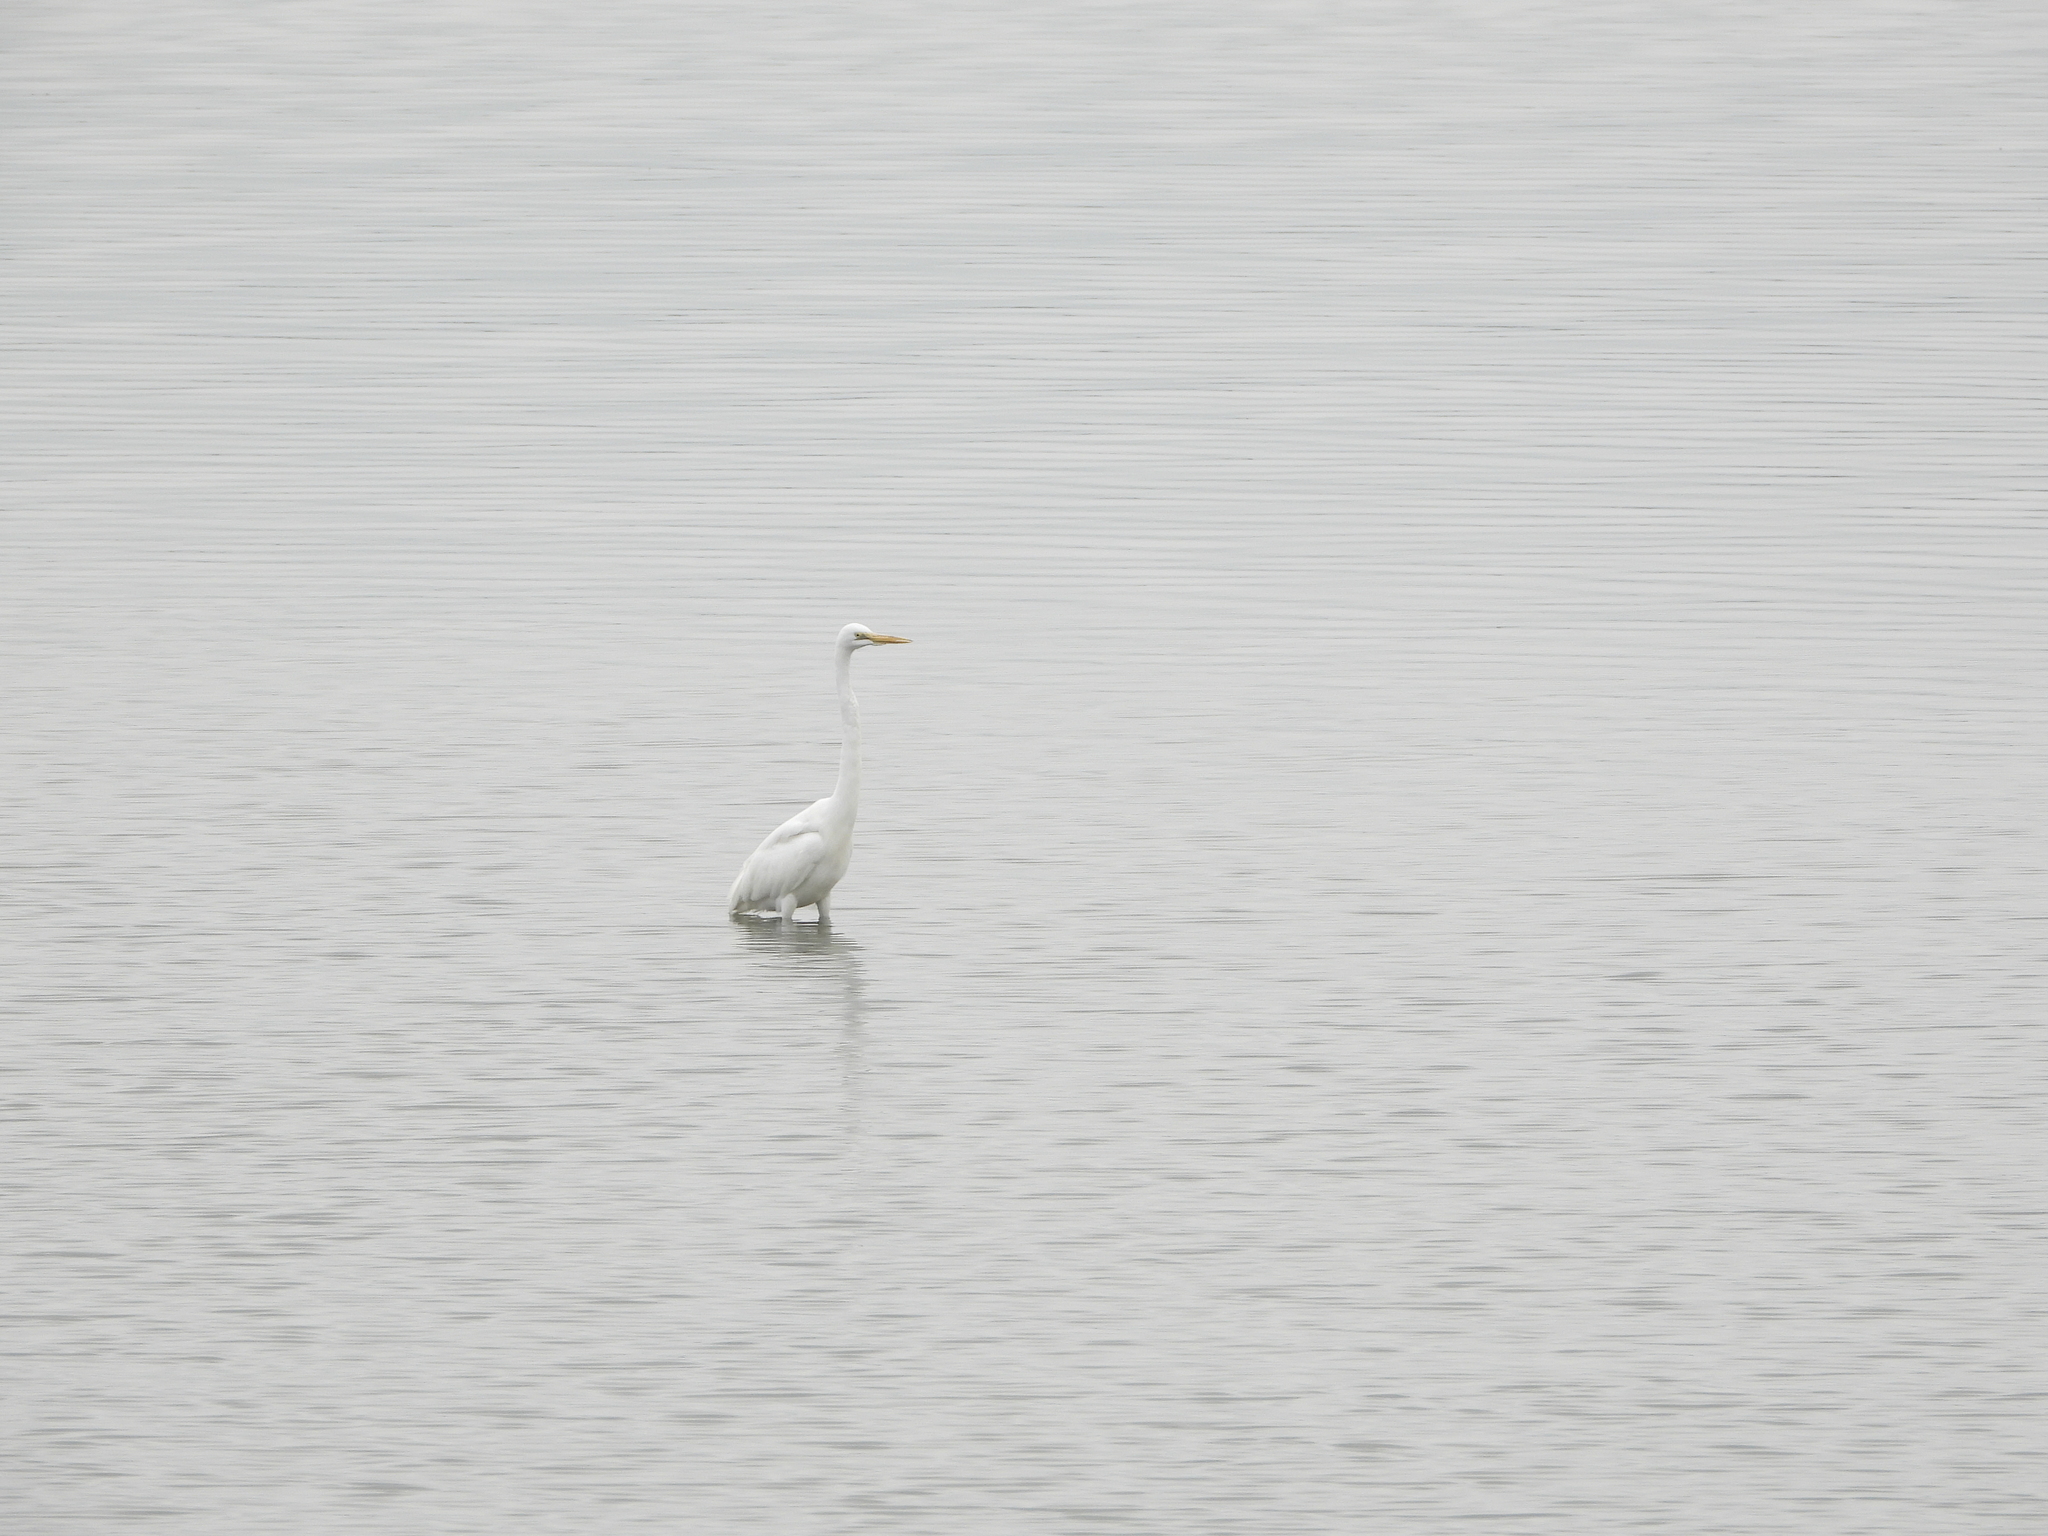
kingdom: Animalia
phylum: Chordata
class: Aves
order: Pelecaniformes
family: Ardeidae
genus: Ardea
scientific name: Ardea alba
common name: Great egret
